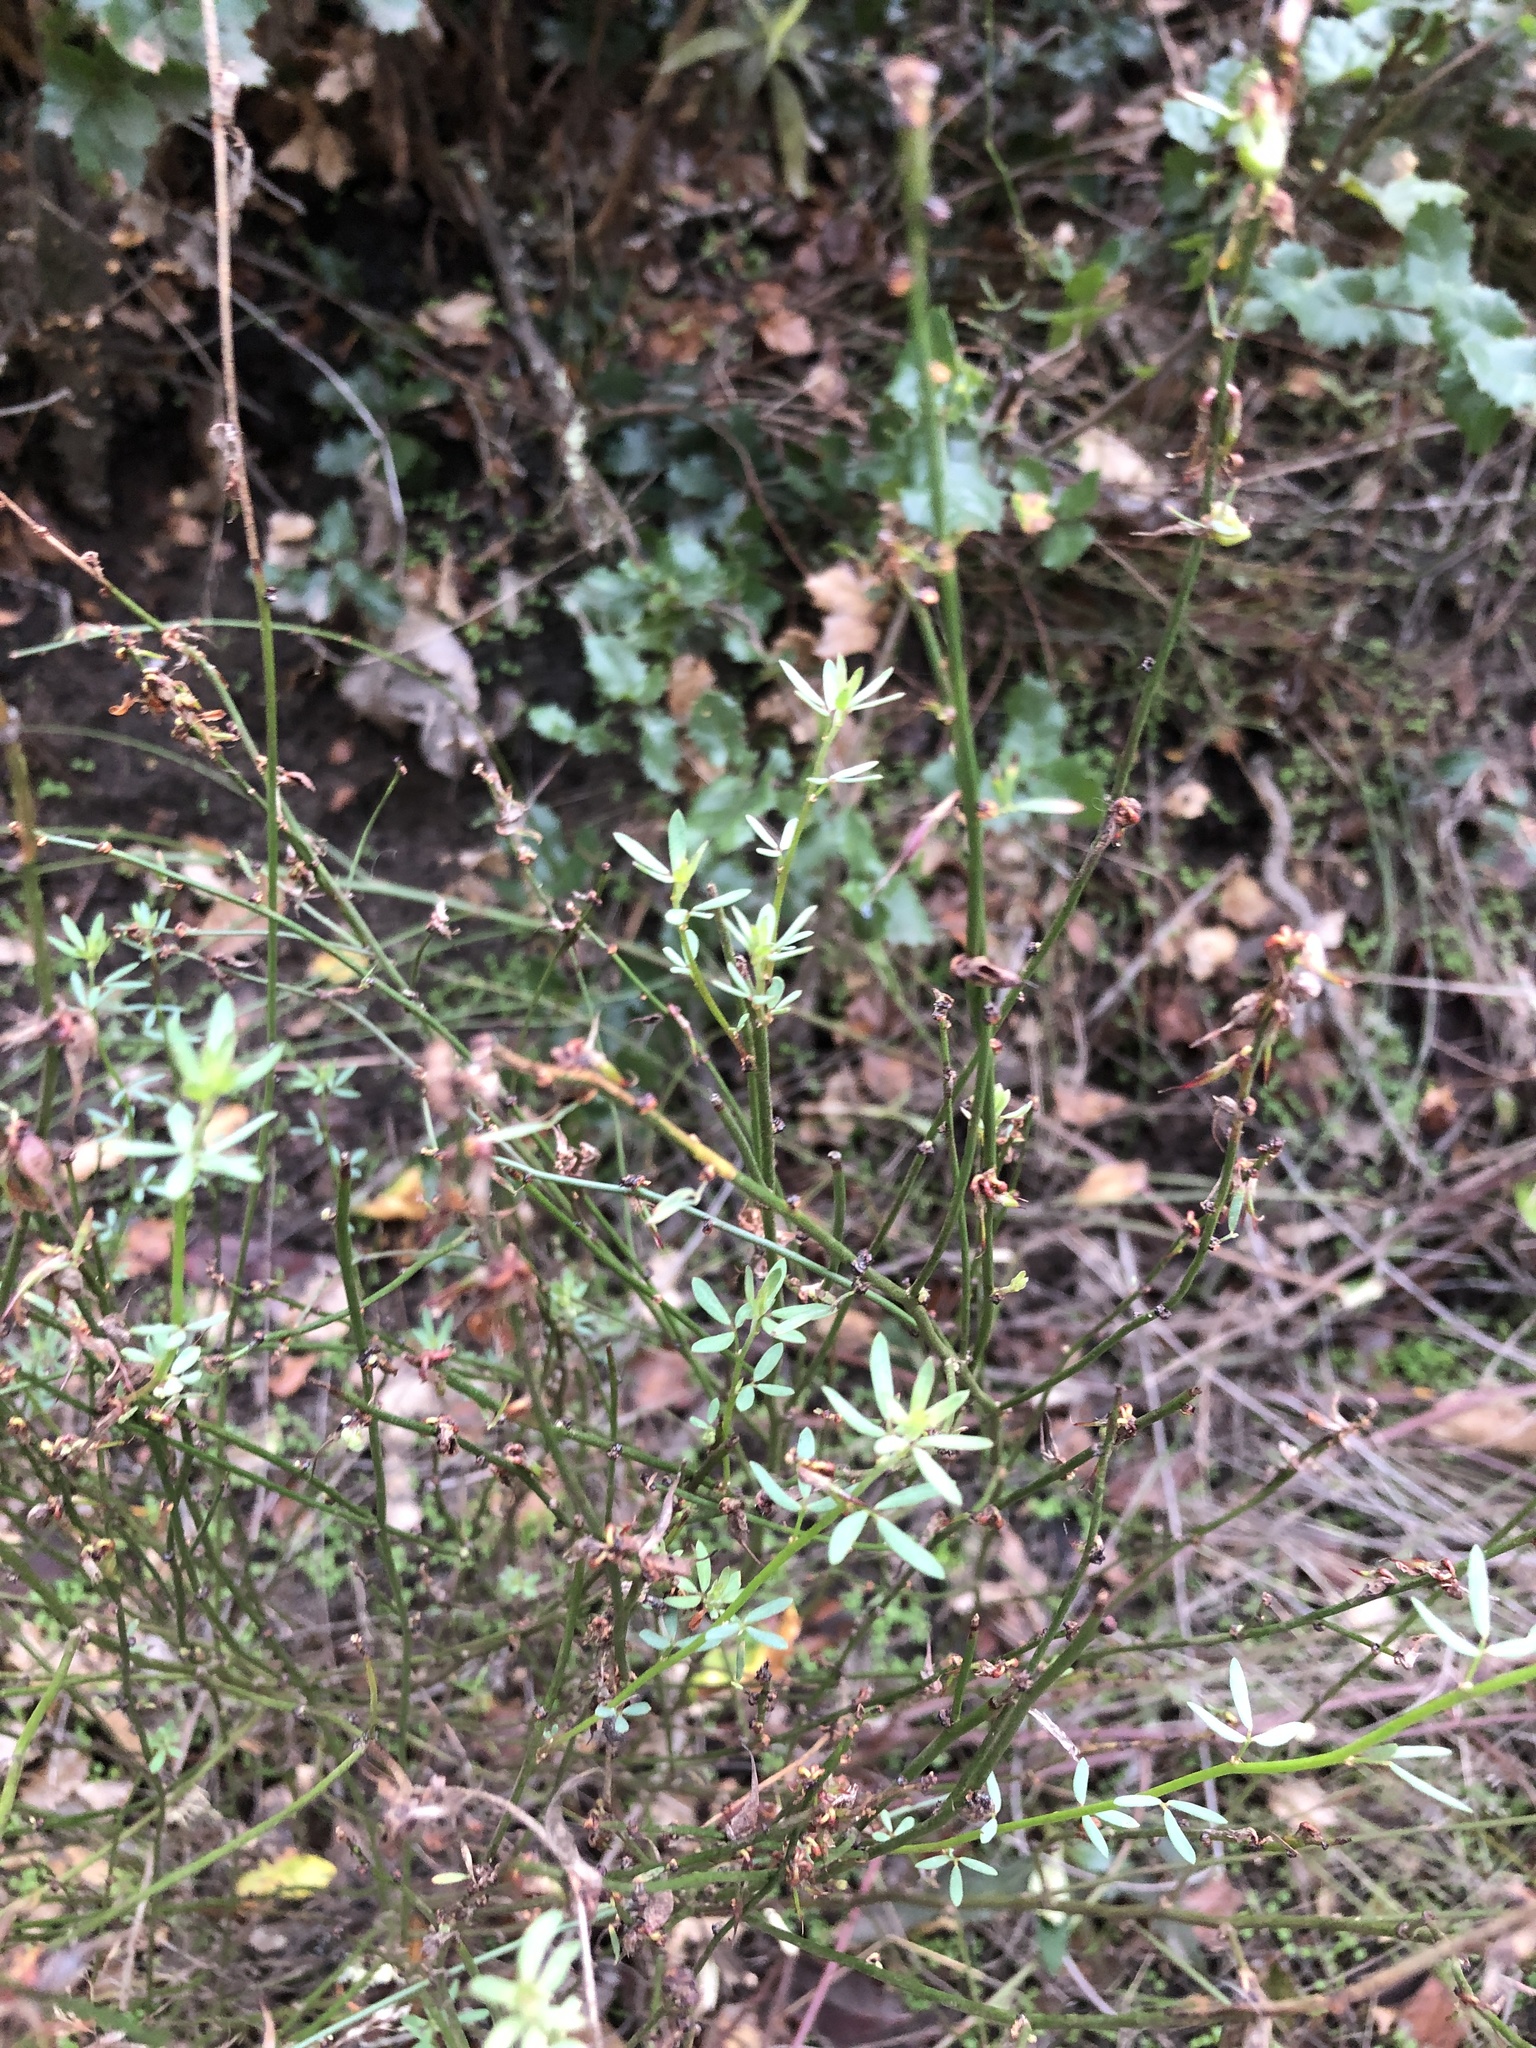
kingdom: Plantae
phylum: Tracheophyta
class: Magnoliopsida
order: Fabales
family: Fabaceae
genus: Acmispon
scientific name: Acmispon glaber
